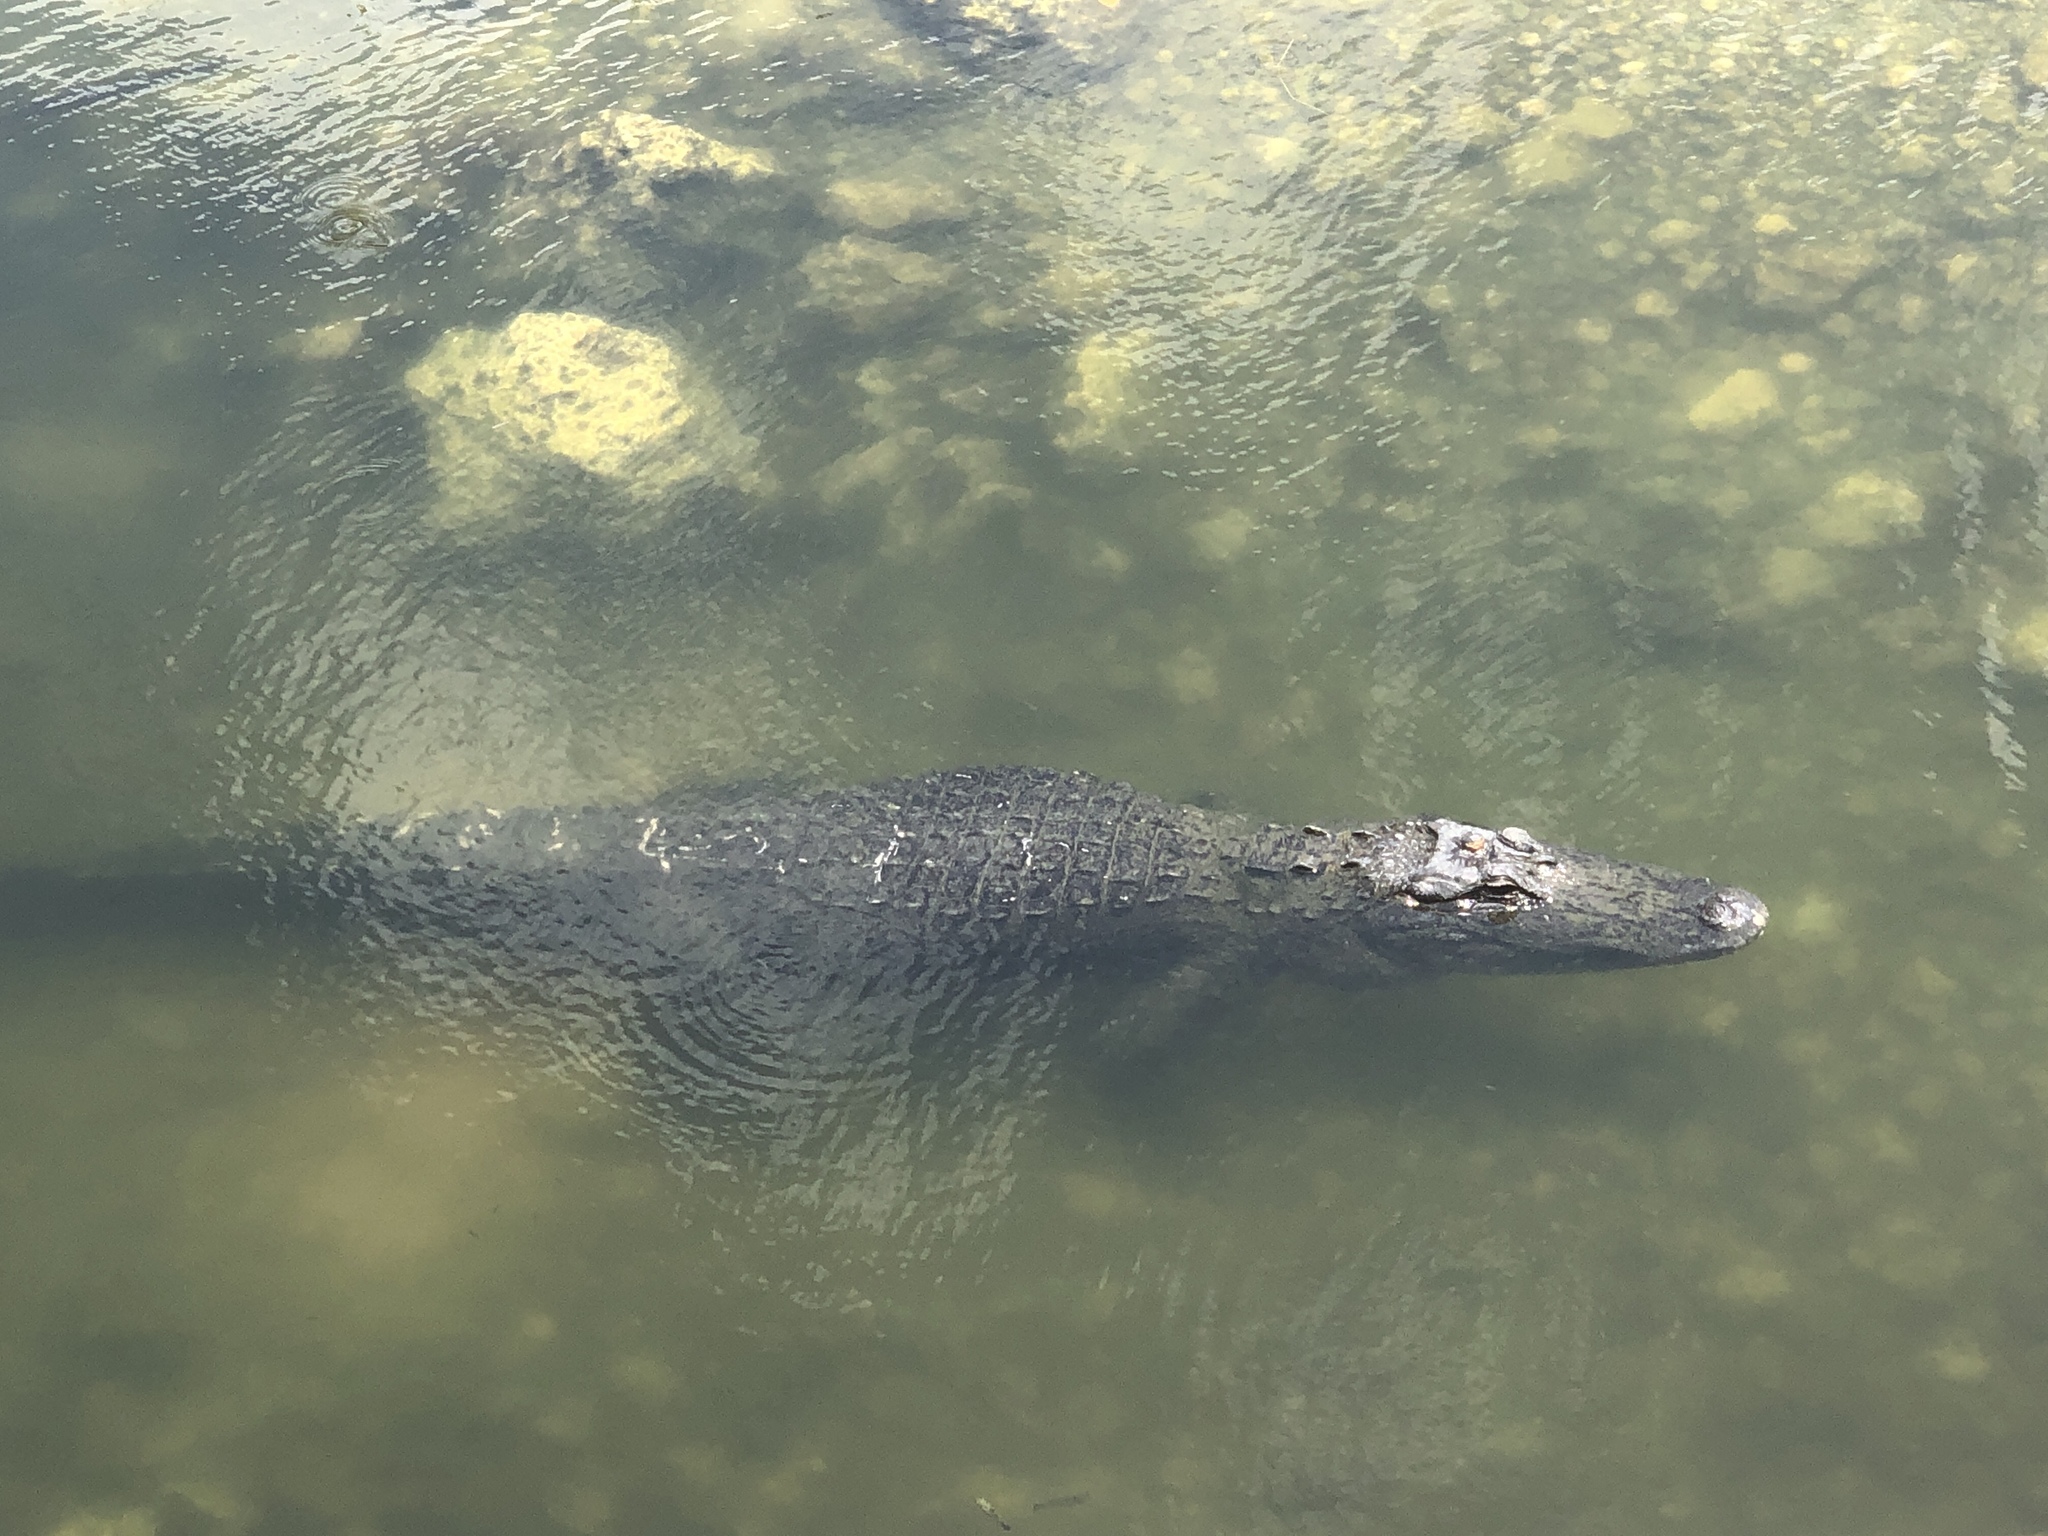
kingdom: Animalia
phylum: Chordata
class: Crocodylia
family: Alligatoridae
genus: Alligator
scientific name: Alligator mississippiensis
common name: American alligator
